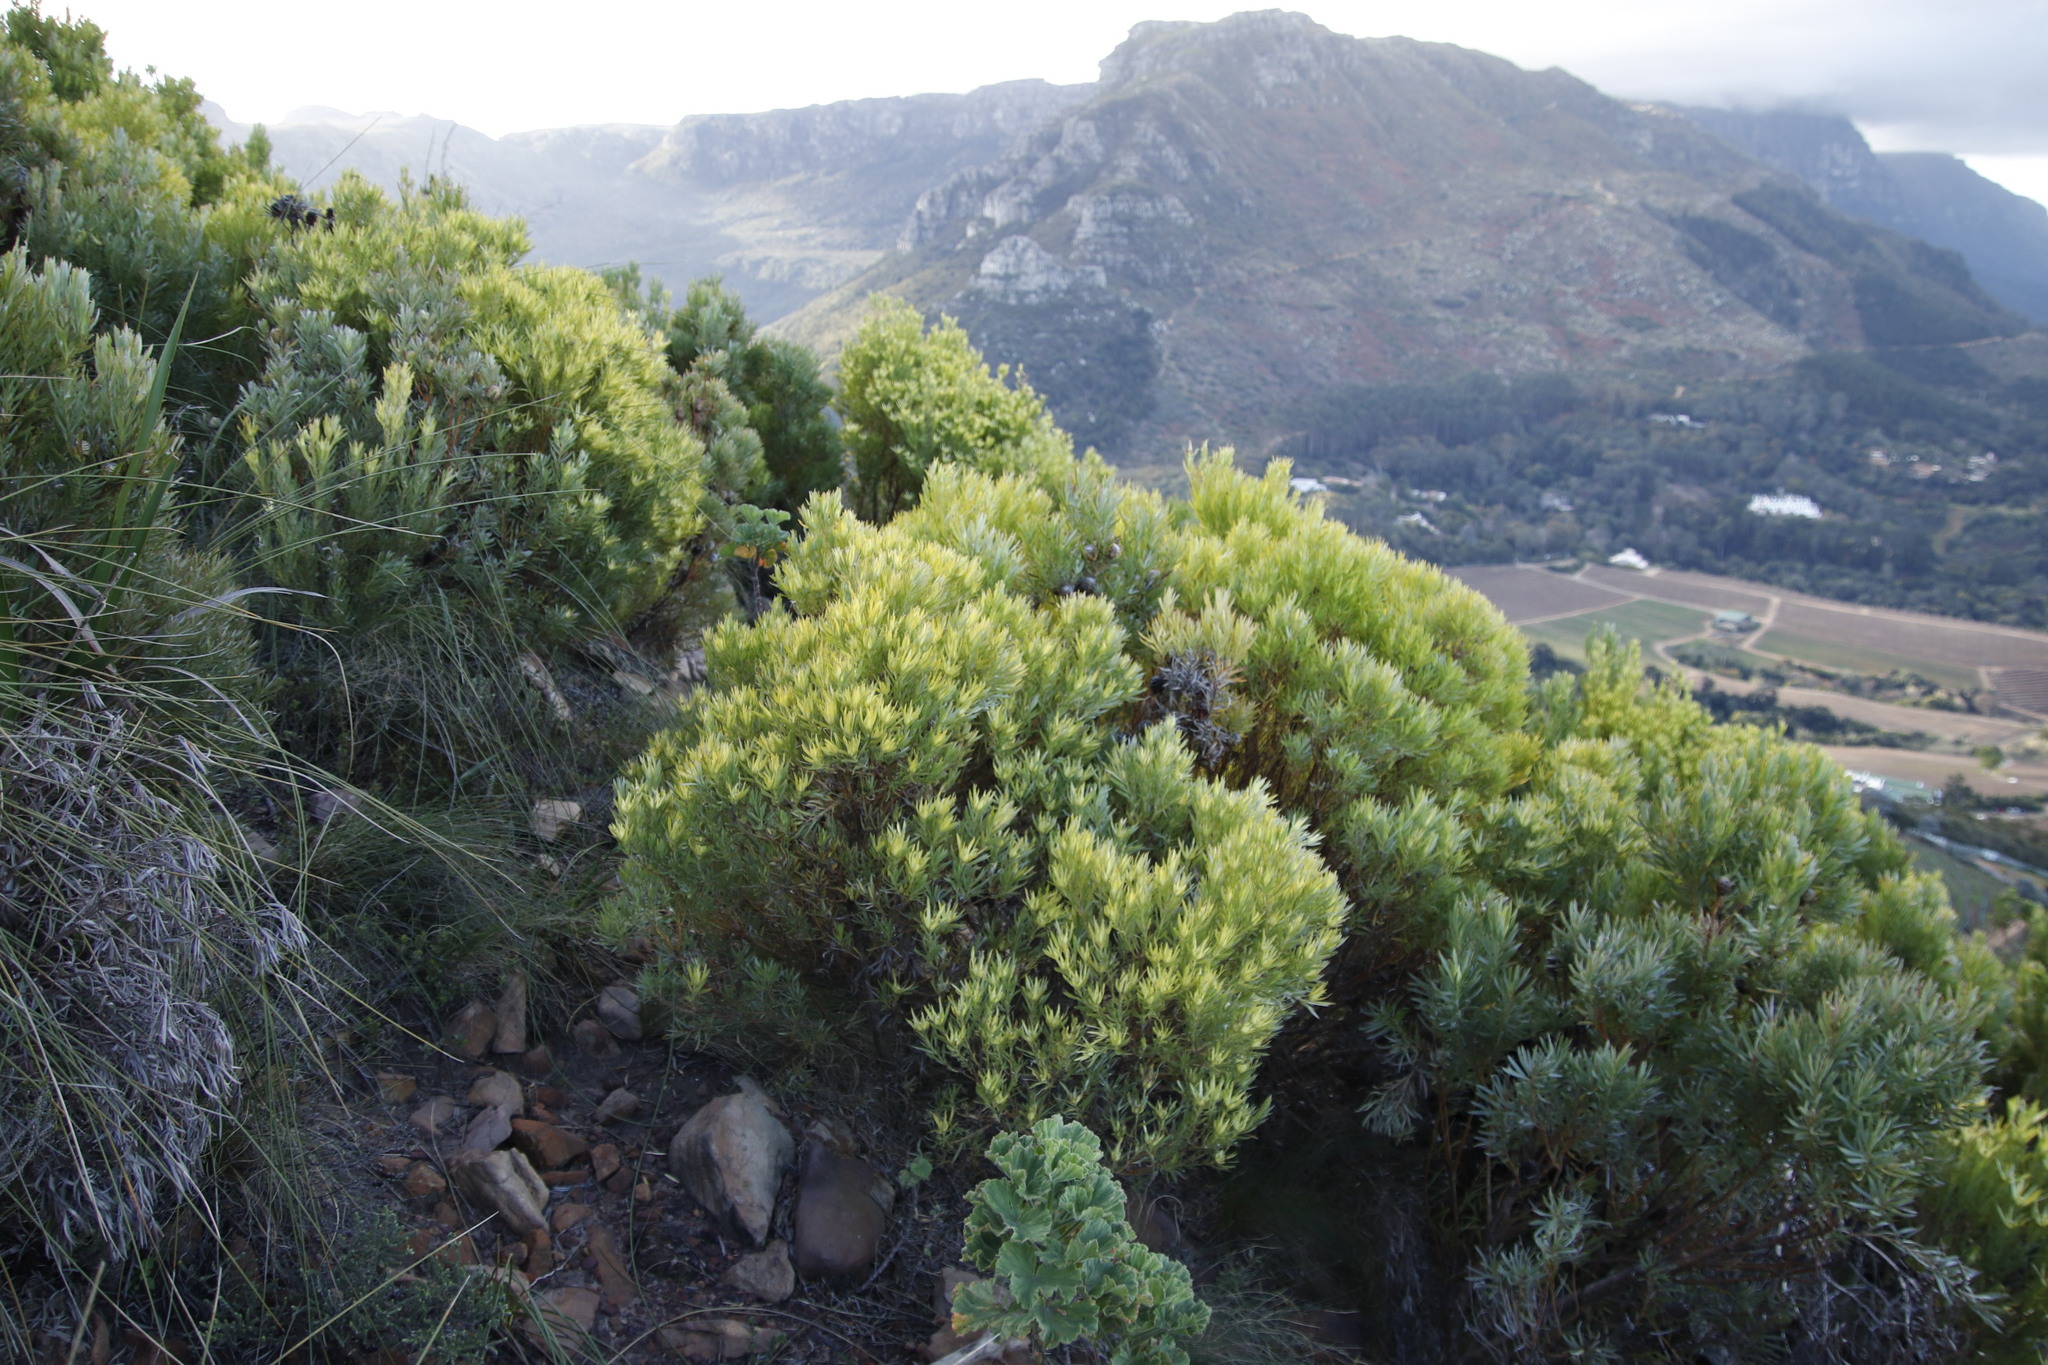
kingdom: Plantae
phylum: Tracheophyta
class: Magnoliopsida
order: Proteales
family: Proteaceae
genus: Leucadendron
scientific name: Leucadendron xanthoconus
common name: Sickle-leaf conebush
